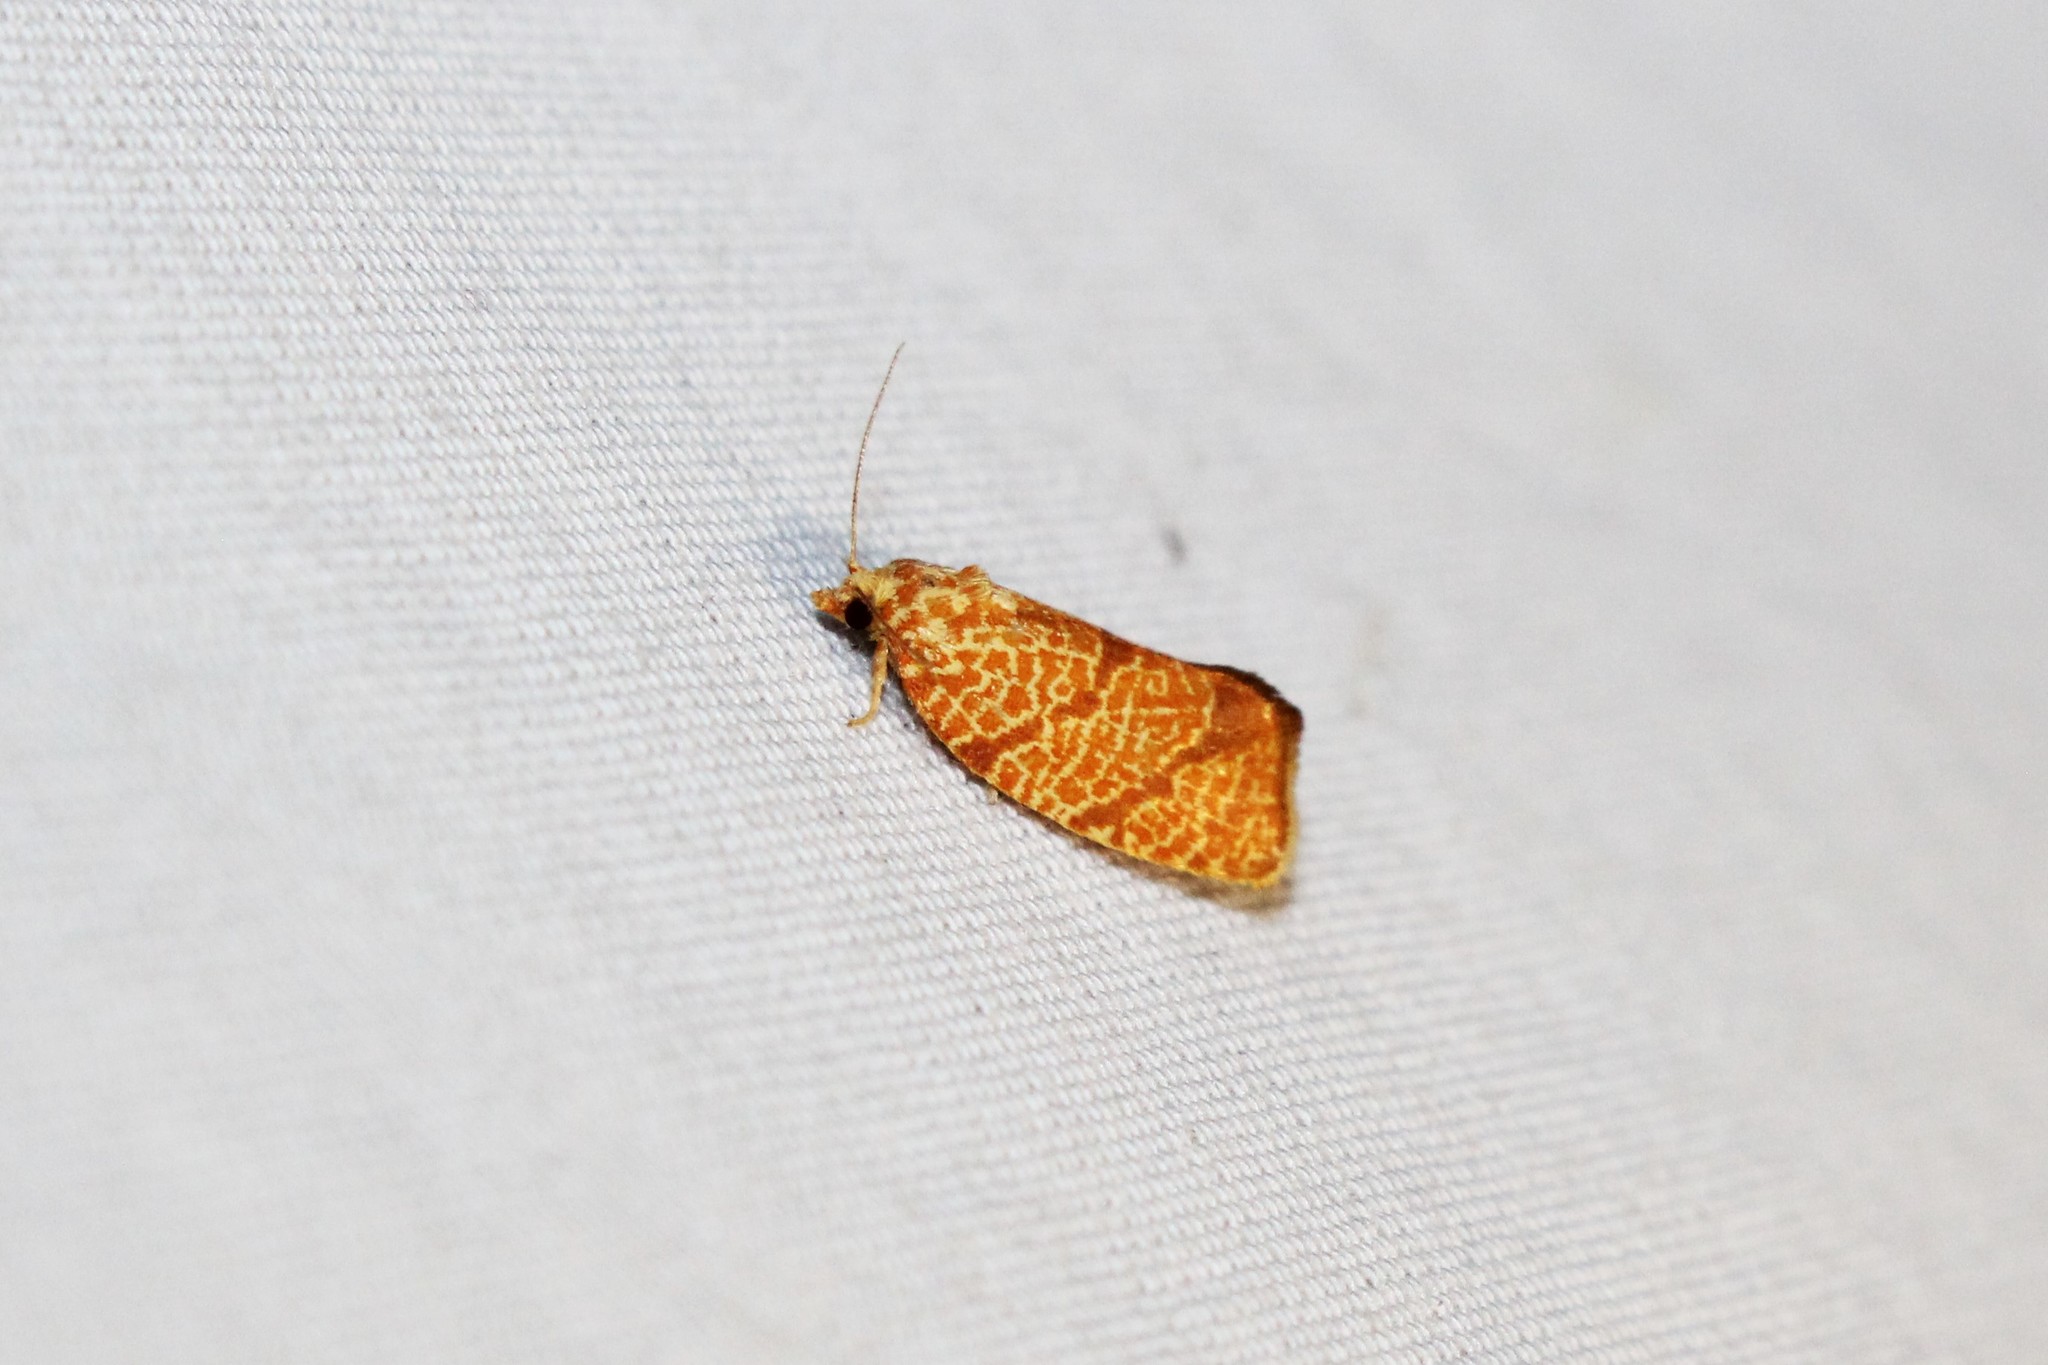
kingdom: Animalia
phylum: Arthropoda
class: Insecta
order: Lepidoptera
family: Tortricidae
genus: Argyrotaenia
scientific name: Argyrotaenia quadrifasciana
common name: Four-lined leafroller moth
